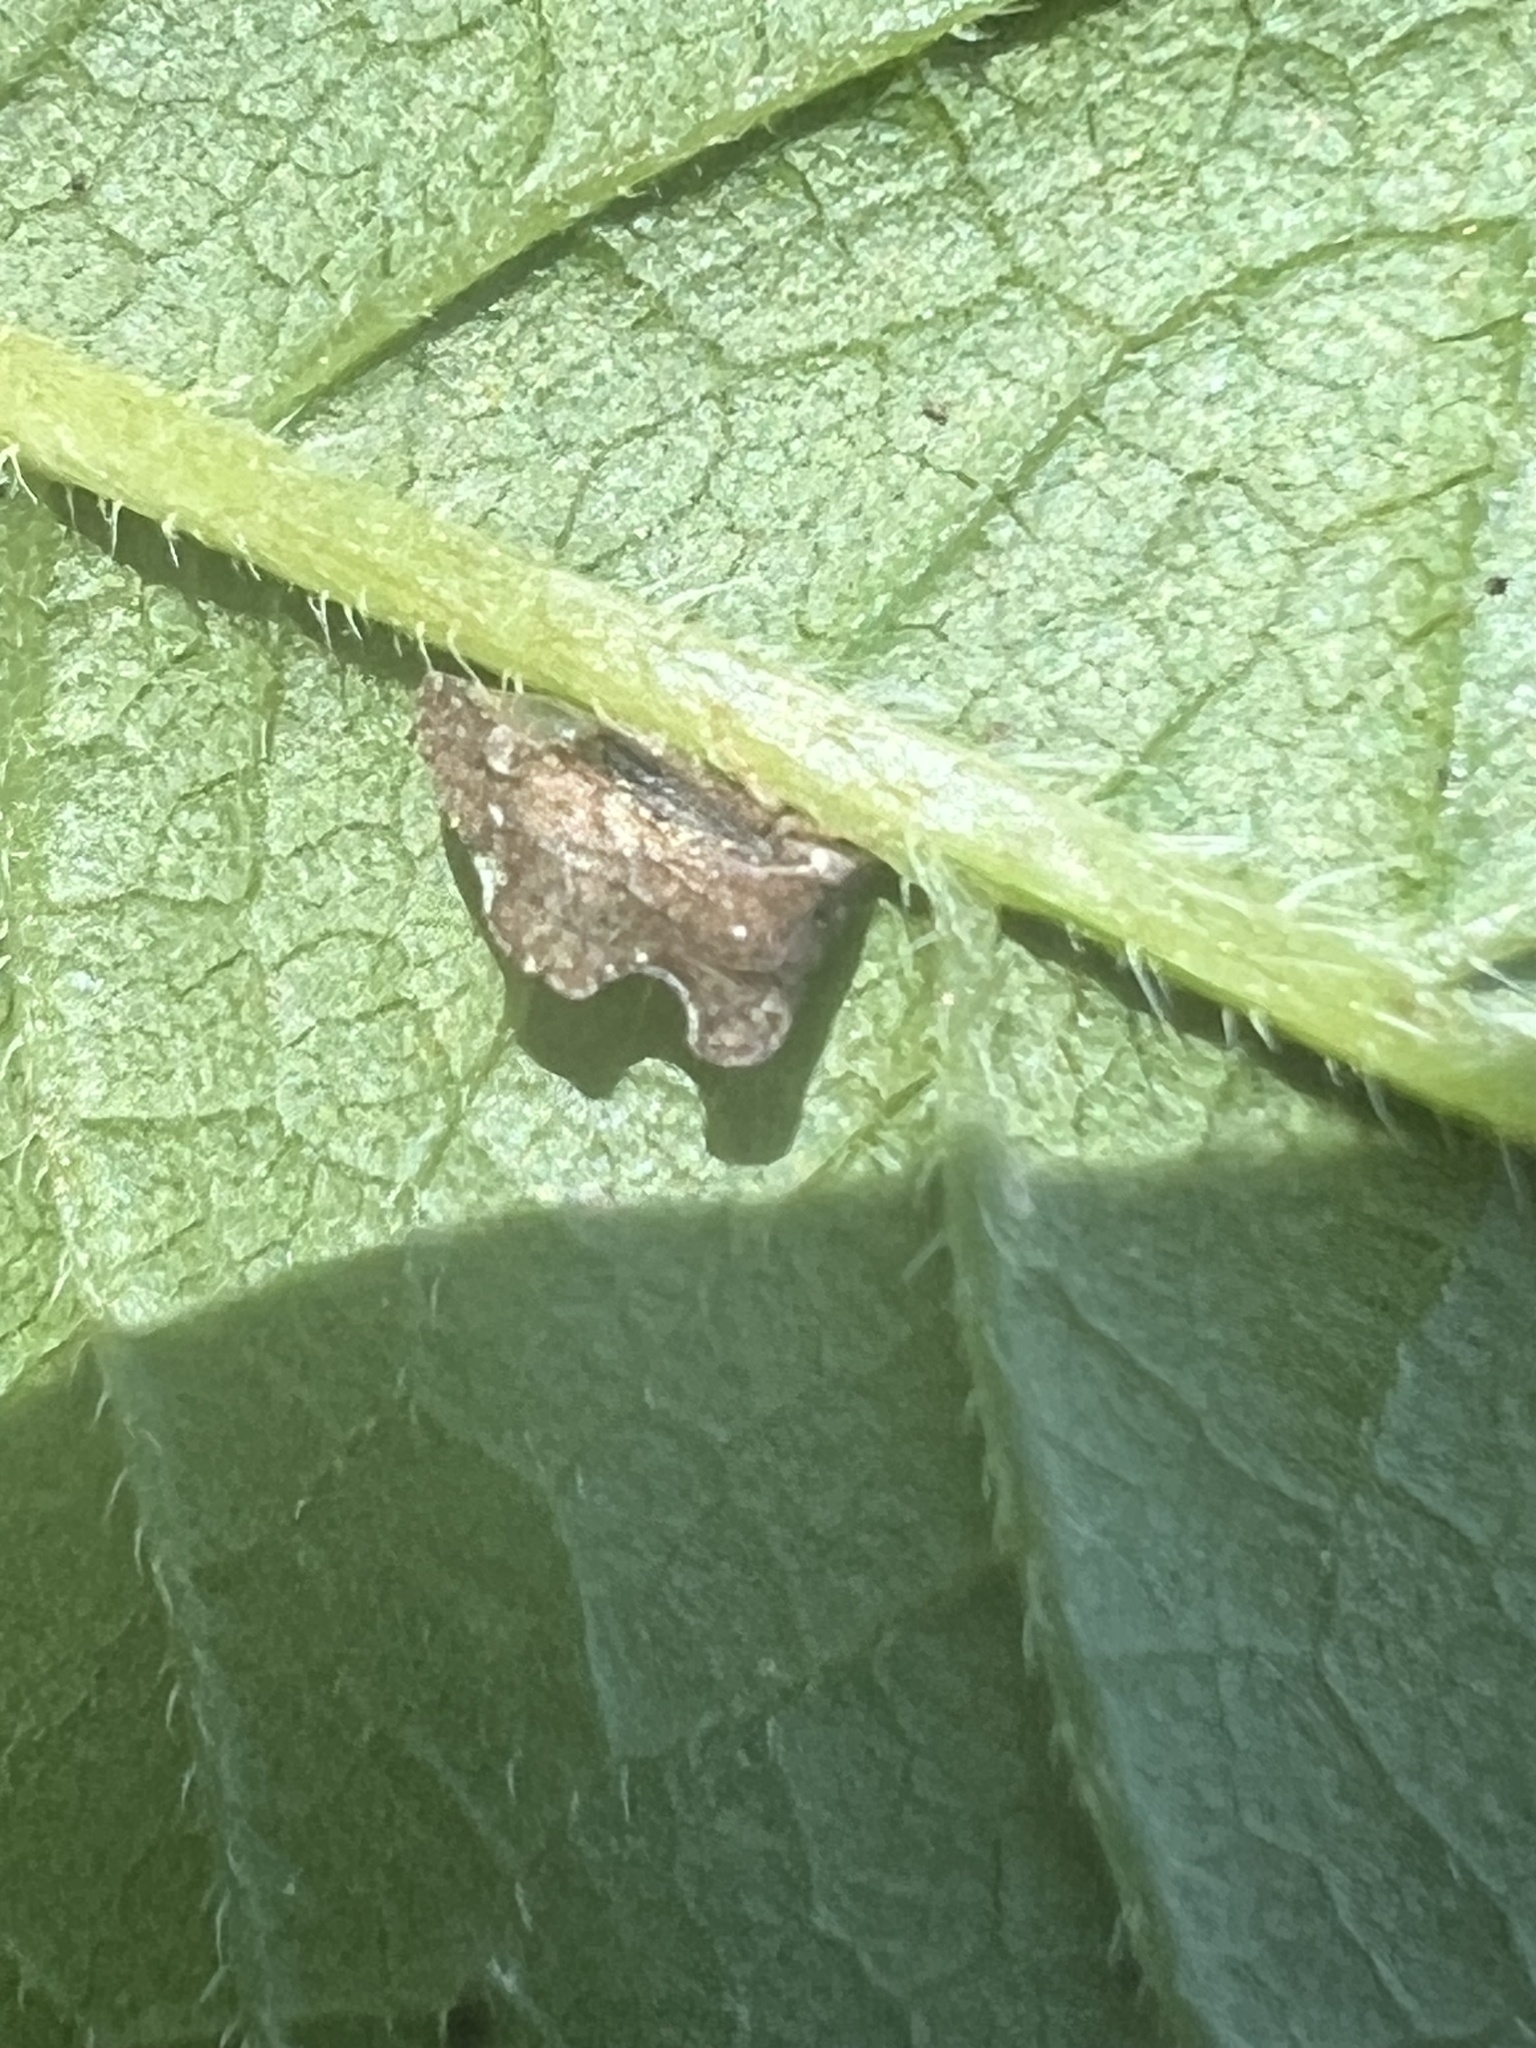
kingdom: Animalia
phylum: Arthropoda
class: Insecta
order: Hemiptera
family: Membracidae
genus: Entylia
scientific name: Entylia carinata
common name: Keeled treehopper
